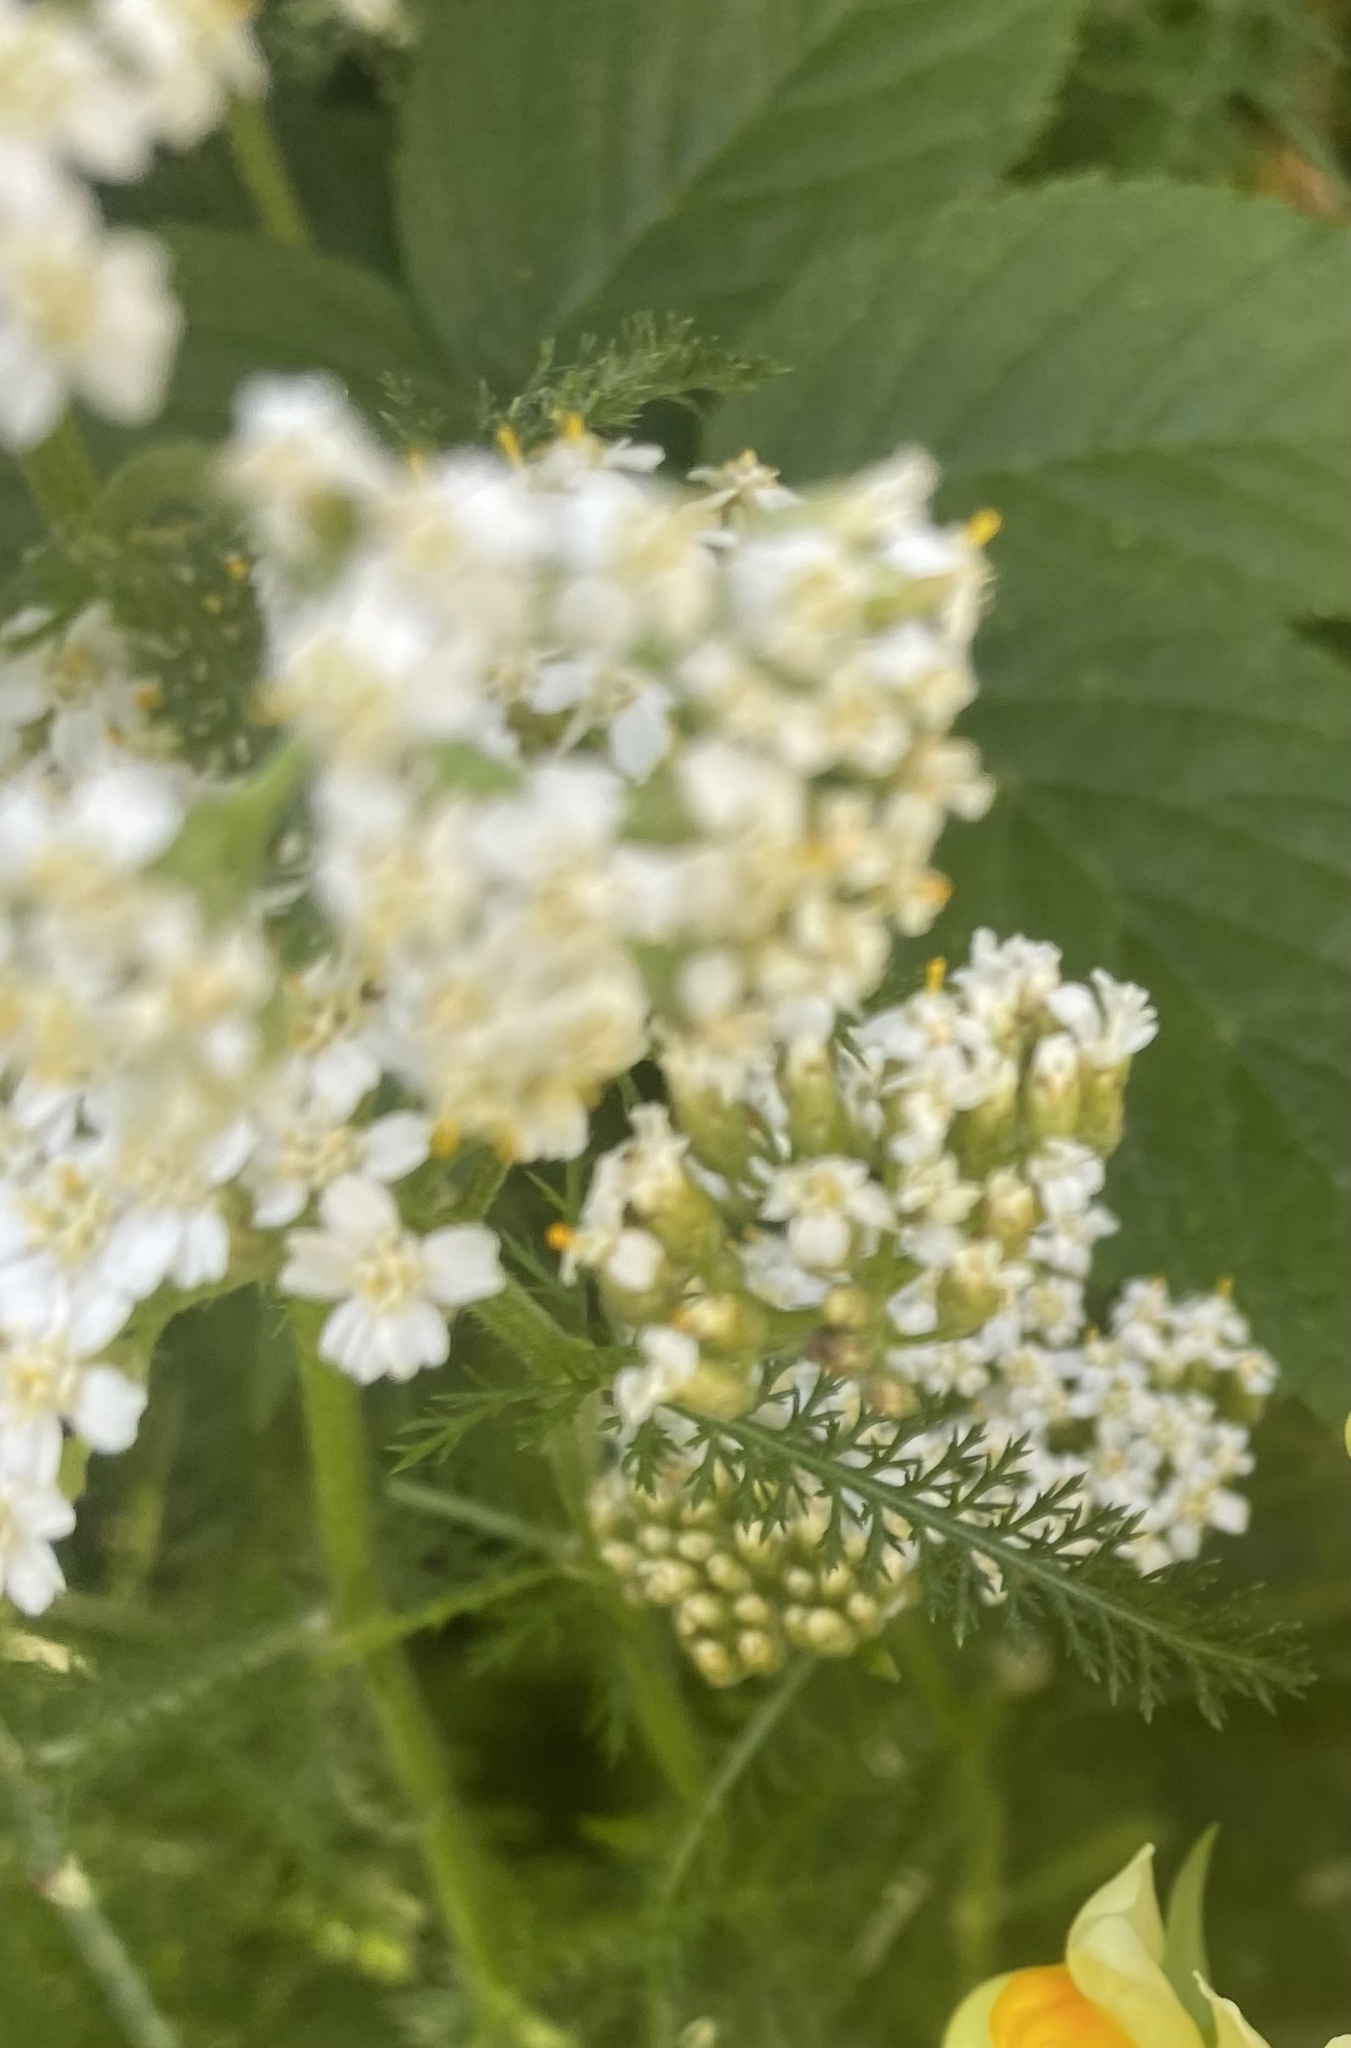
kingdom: Plantae
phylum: Tracheophyta
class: Magnoliopsida
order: Asterales
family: Asteraceae
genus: Achillea
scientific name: Achillea millefolium
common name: Yarrow
